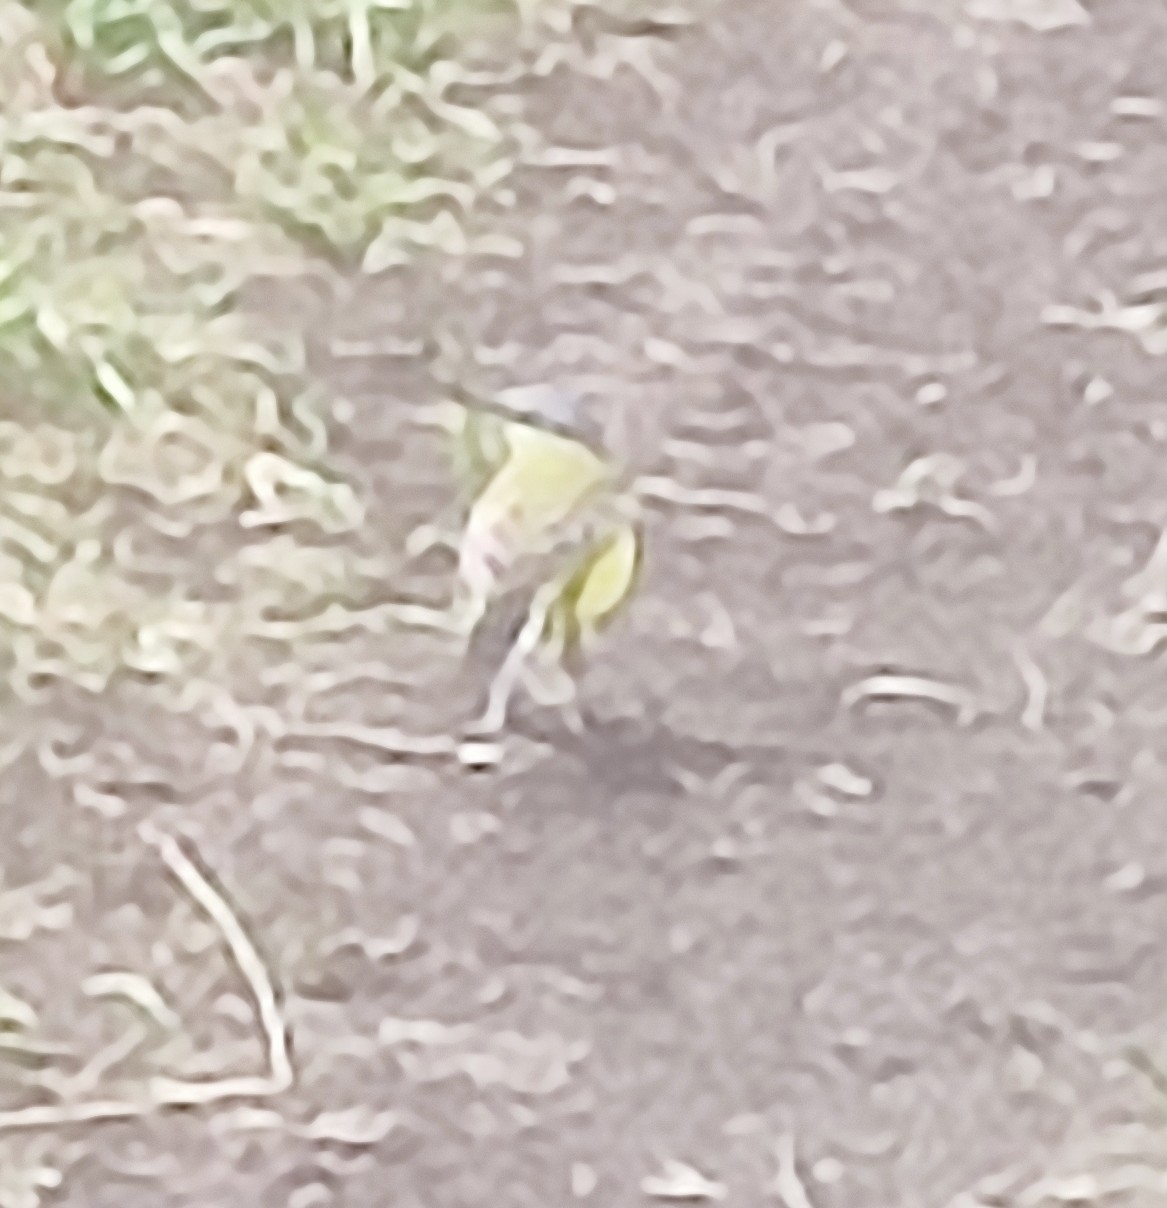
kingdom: Animalia
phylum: Chordata
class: Aves
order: Passeriformes
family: Motacillidae
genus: Motacilla
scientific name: Motacilla flava
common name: Western yellow wagtail
